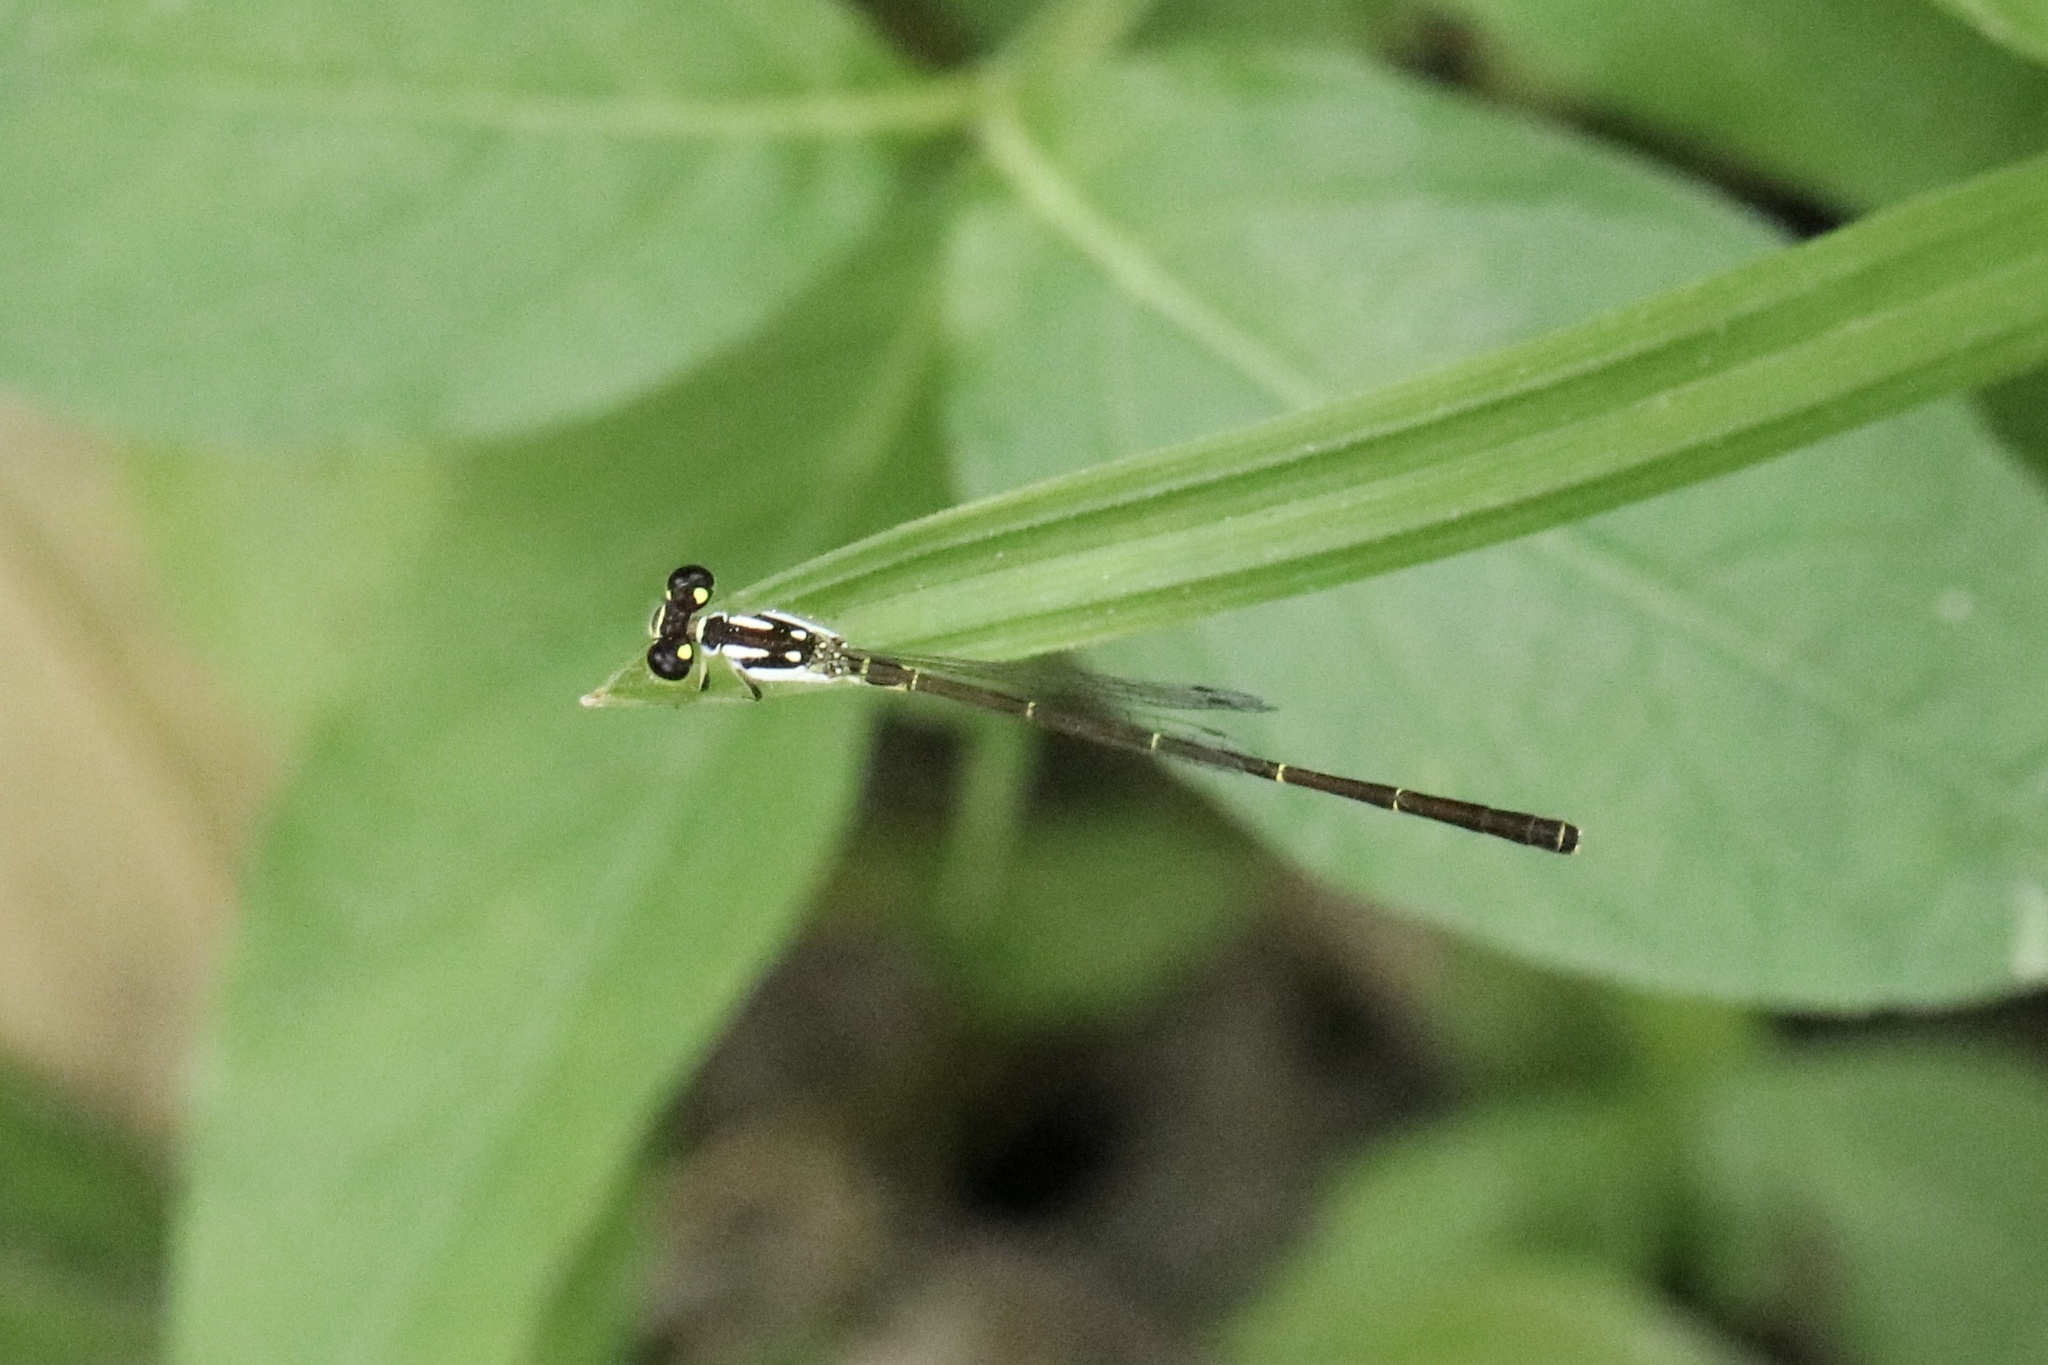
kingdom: Animalia
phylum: Arthropoda
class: Insecta
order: Odonata
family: Coenagrionidae
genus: Ischnura
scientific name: Ischnura posita
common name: Fragile forktail
